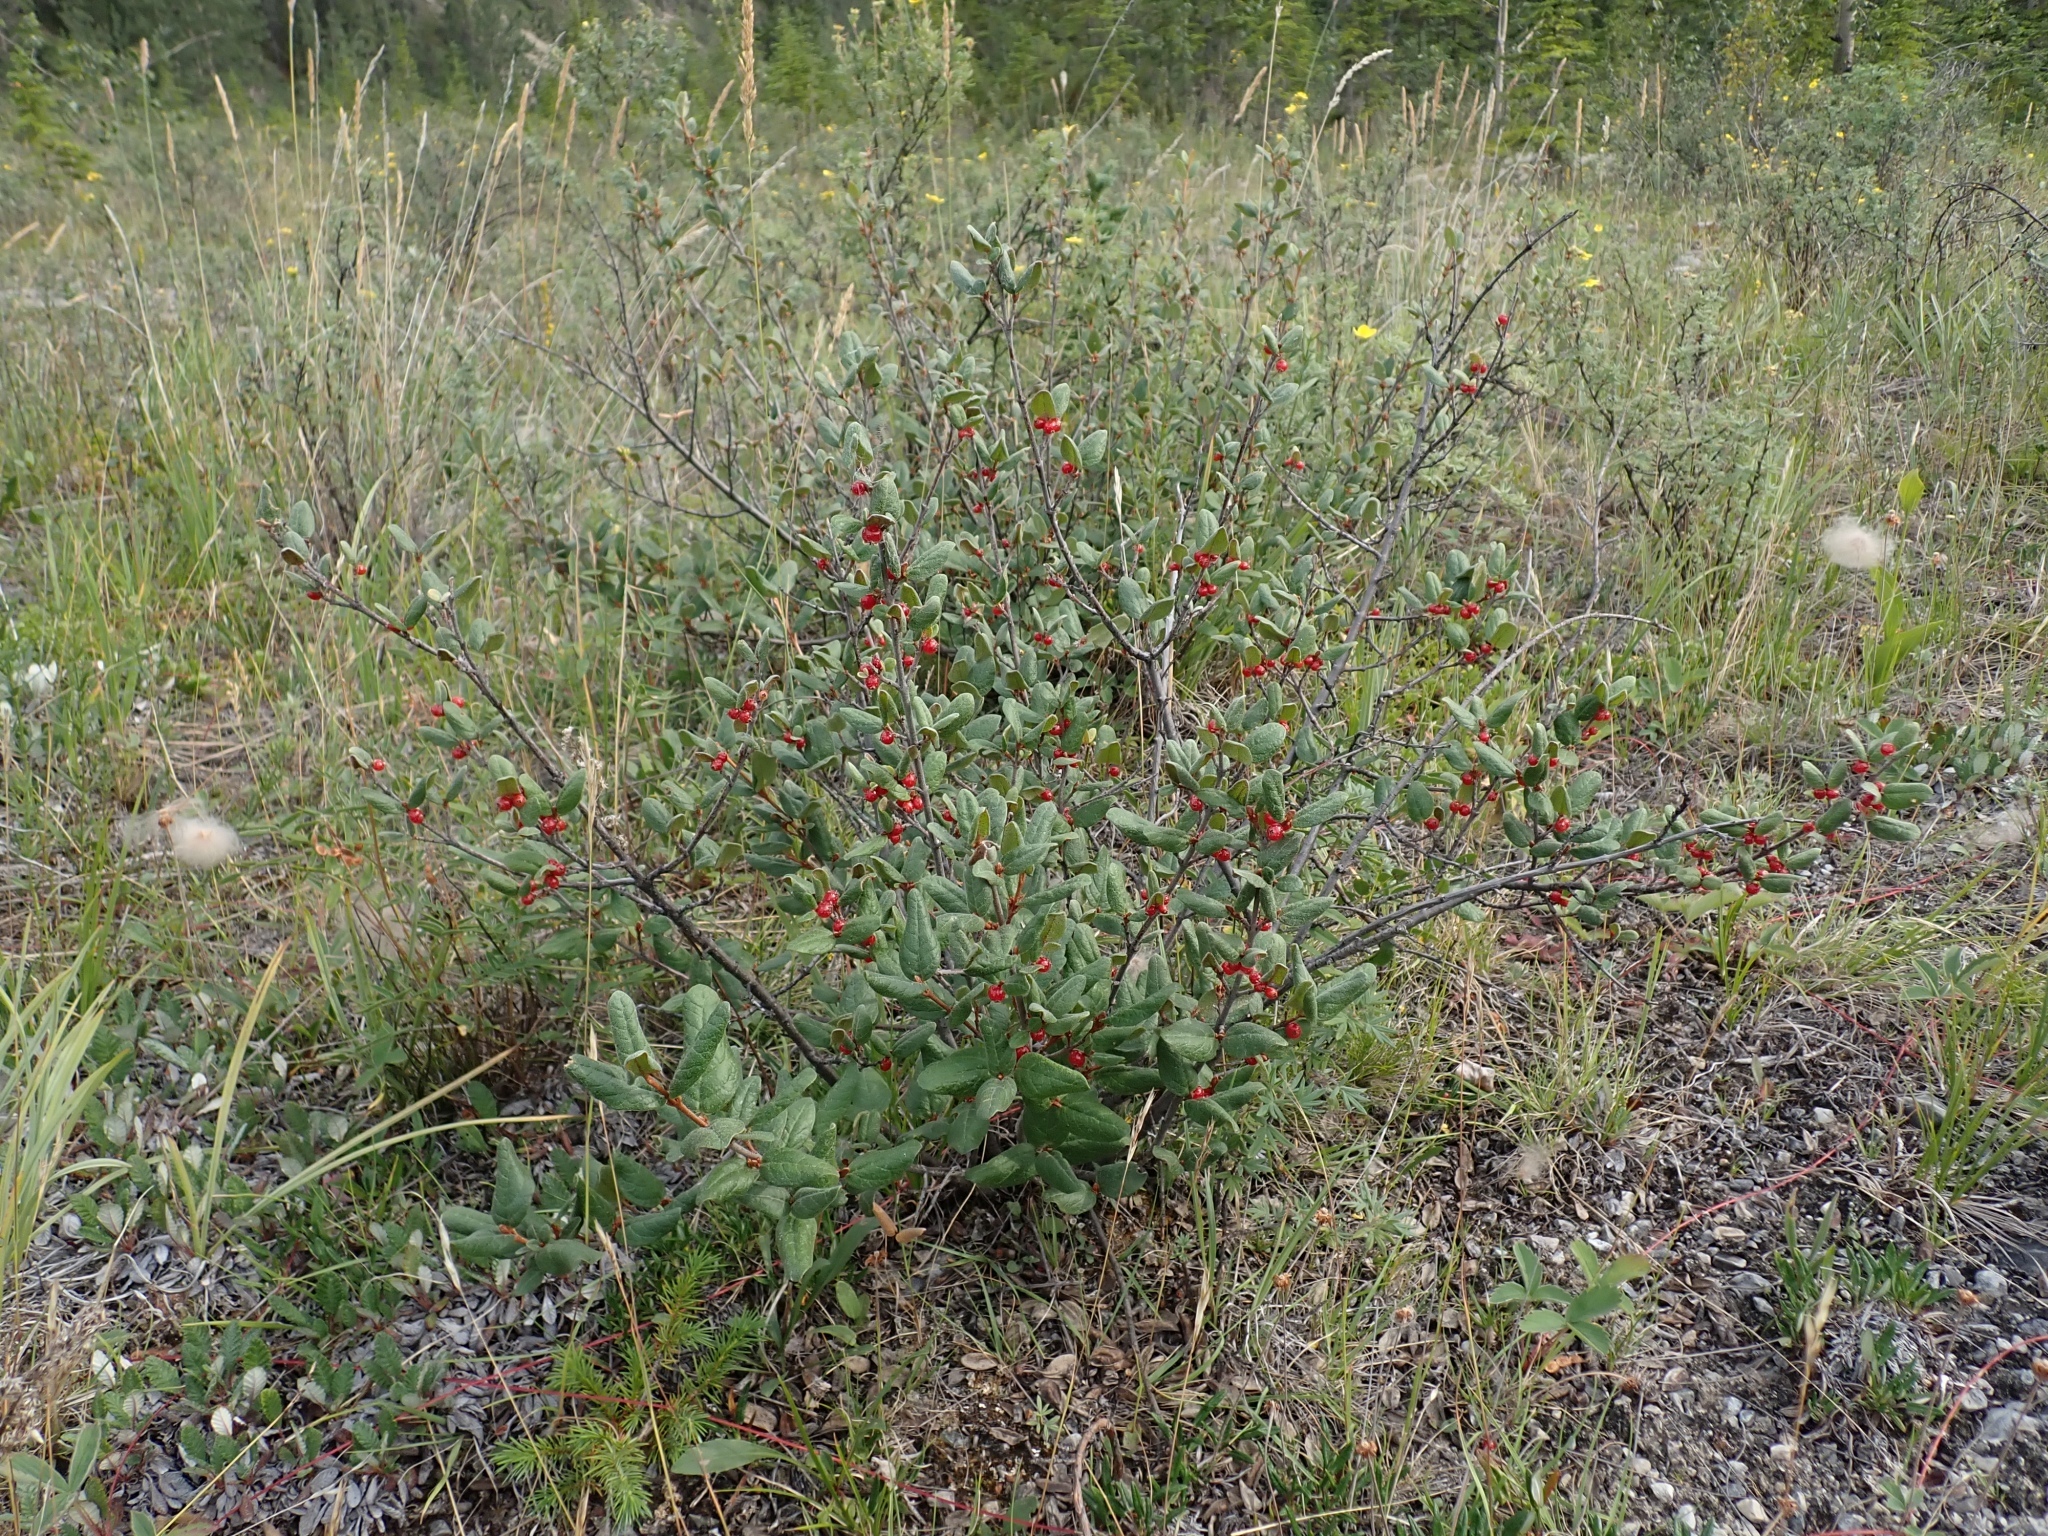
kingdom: Plantae
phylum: Tracheophyta
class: Magnoliopsida
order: Rosales
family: Elaeagnaceae
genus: Shepherdia
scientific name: Shepherdia canadensis
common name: Soapberry
